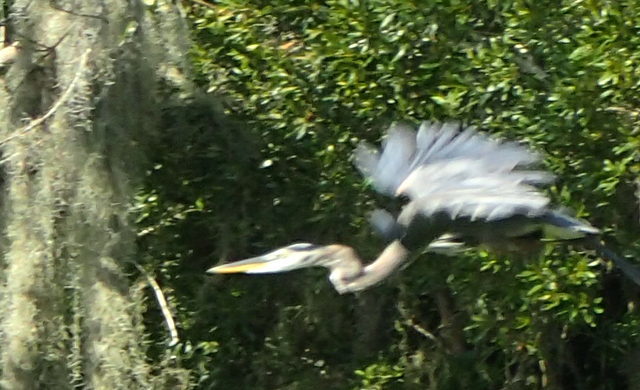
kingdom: Animalia
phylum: Chordata
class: Aves
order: Pelecaniformes
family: Ardeidae
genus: Ardea
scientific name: Ardea herodias
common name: Great blue heron
